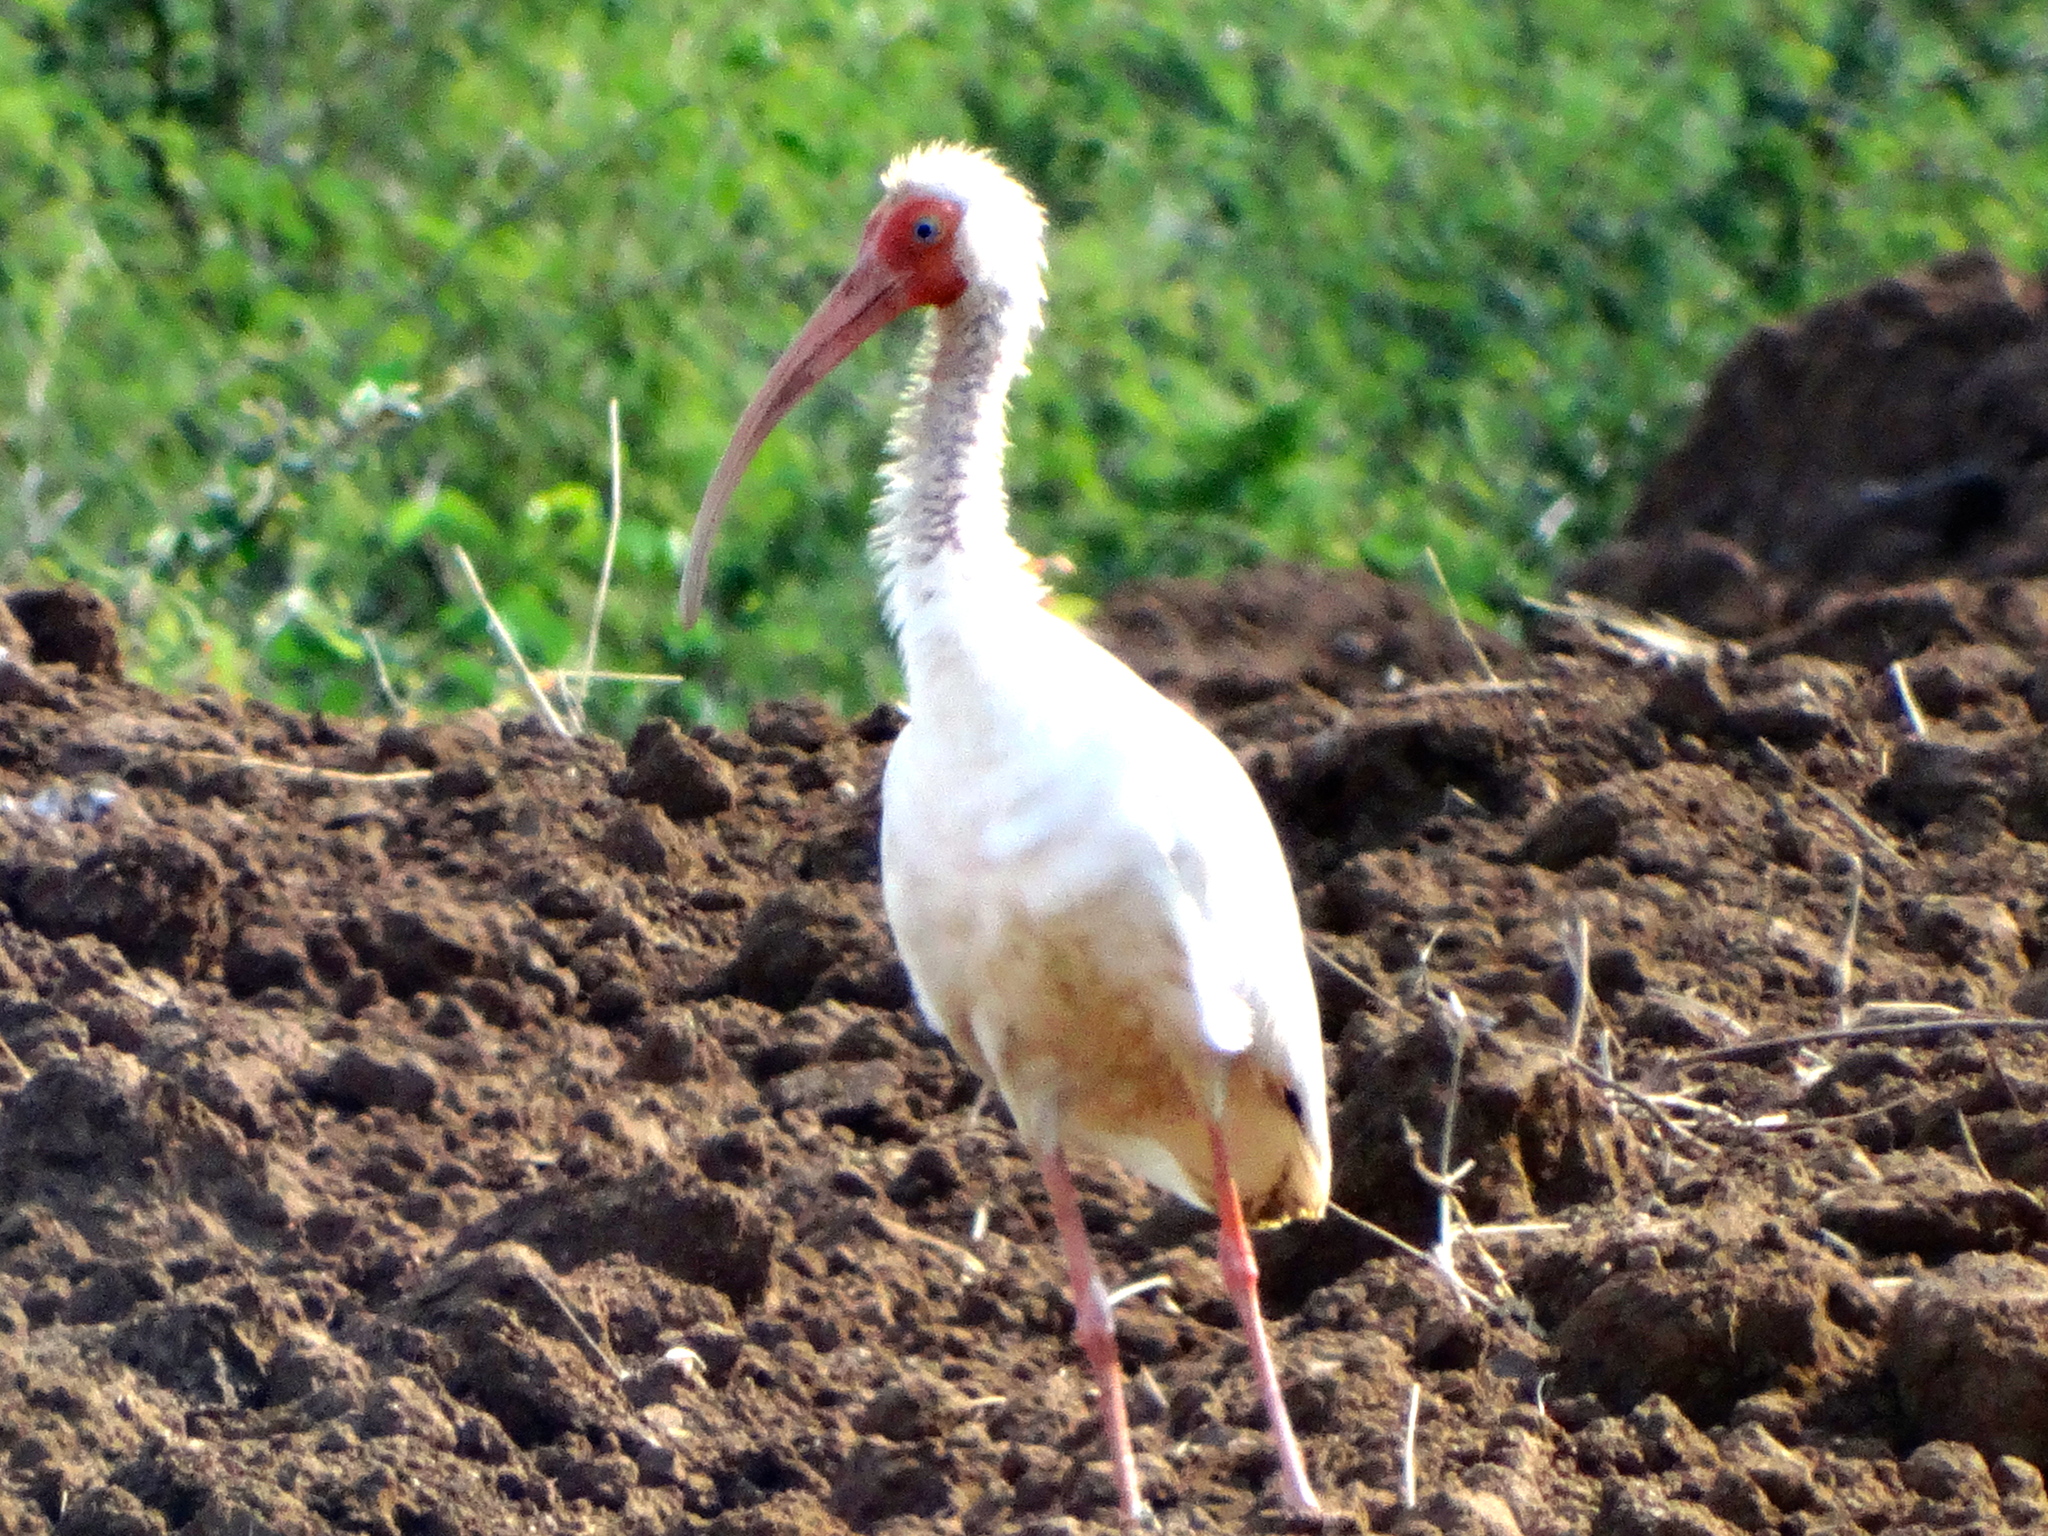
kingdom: Animalia
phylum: Chordata
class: Aves
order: Pelecaniformes
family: Threskiornithidae
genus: Eudocimus
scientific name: Eudocimus albus
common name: White ibis
